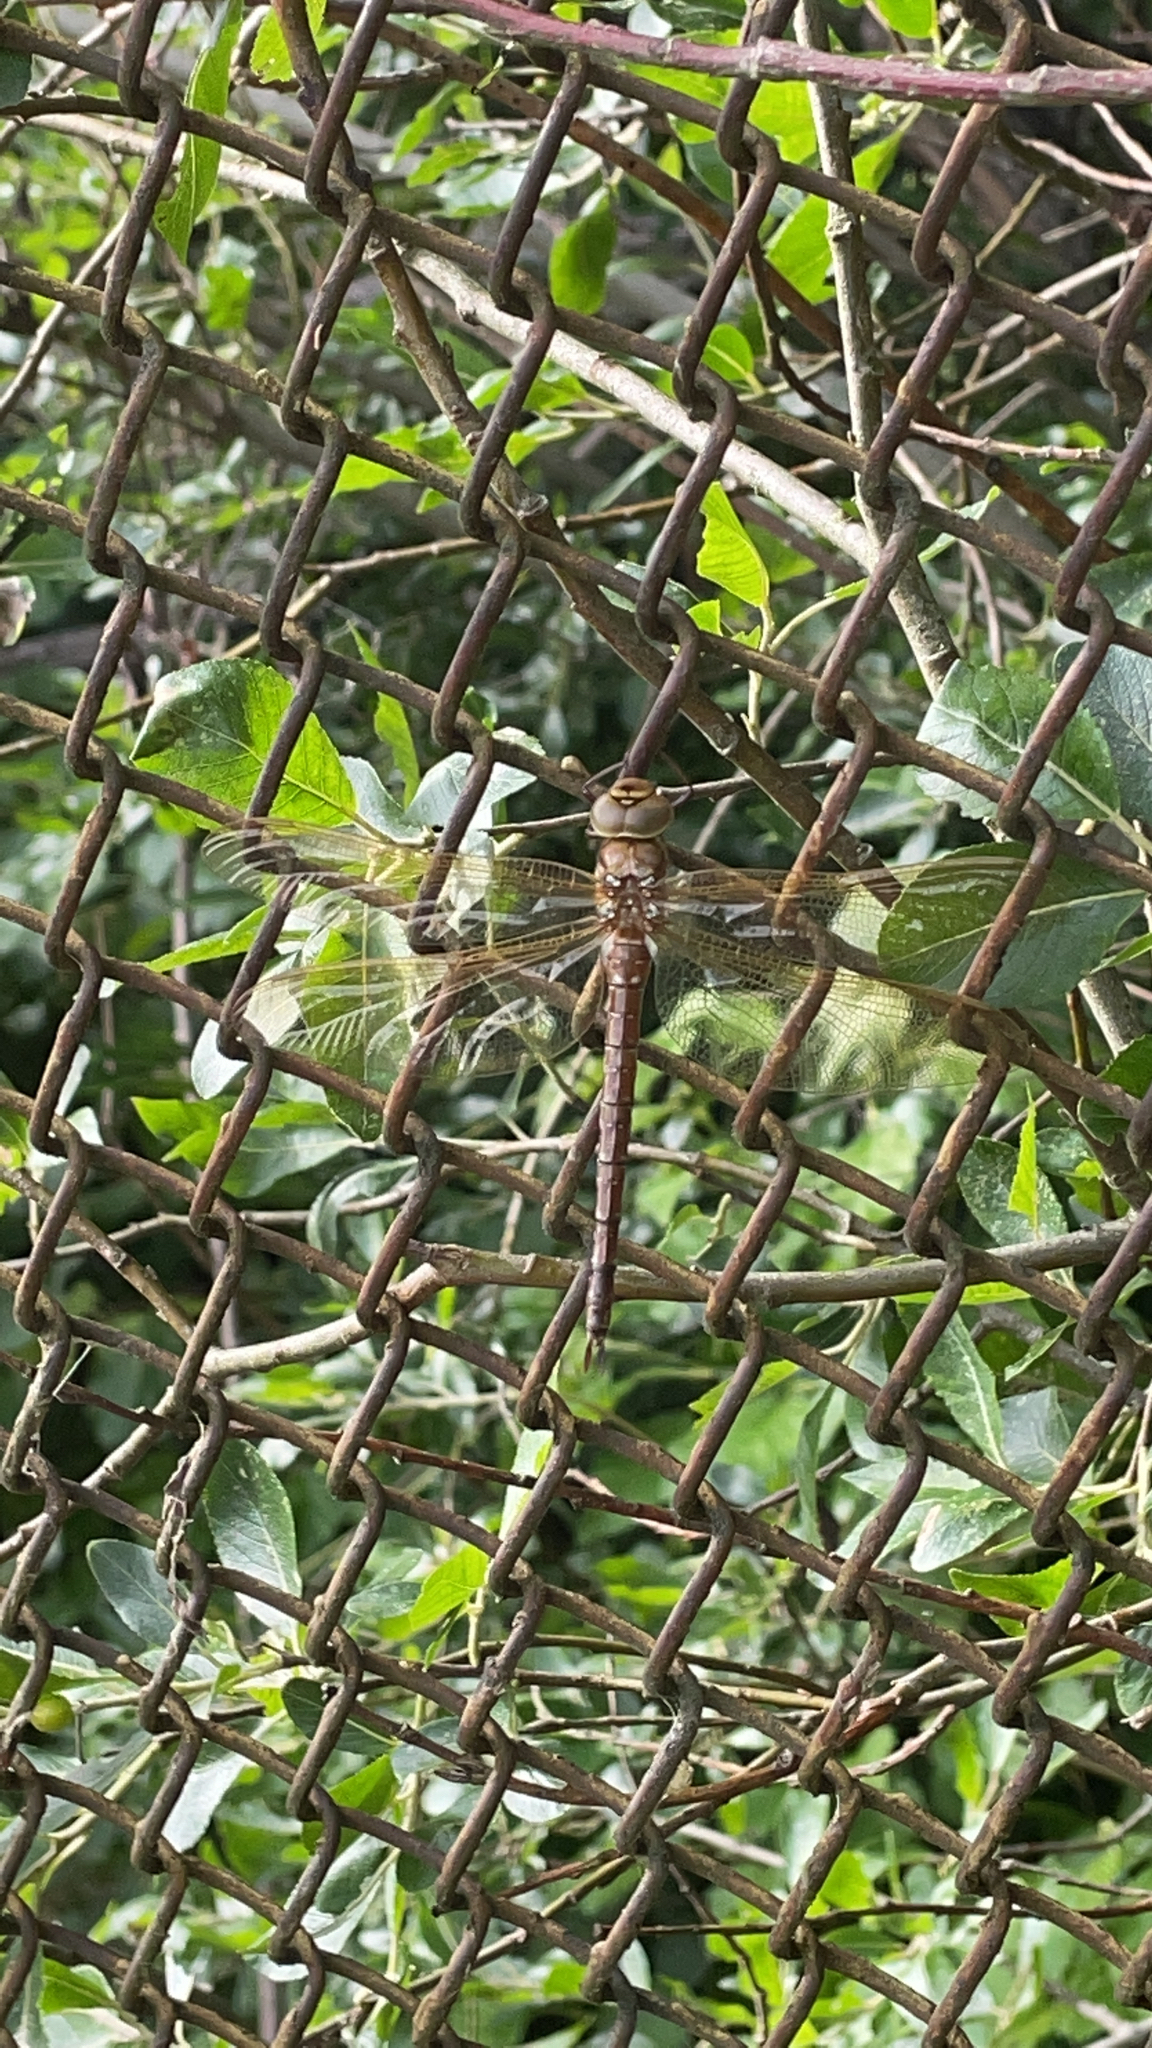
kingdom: Animalia
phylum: Arthropoda
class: Insecta
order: Odonata
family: Aeshnidae
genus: Aeshna
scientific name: Aeshna grandis
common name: Brown hawker
